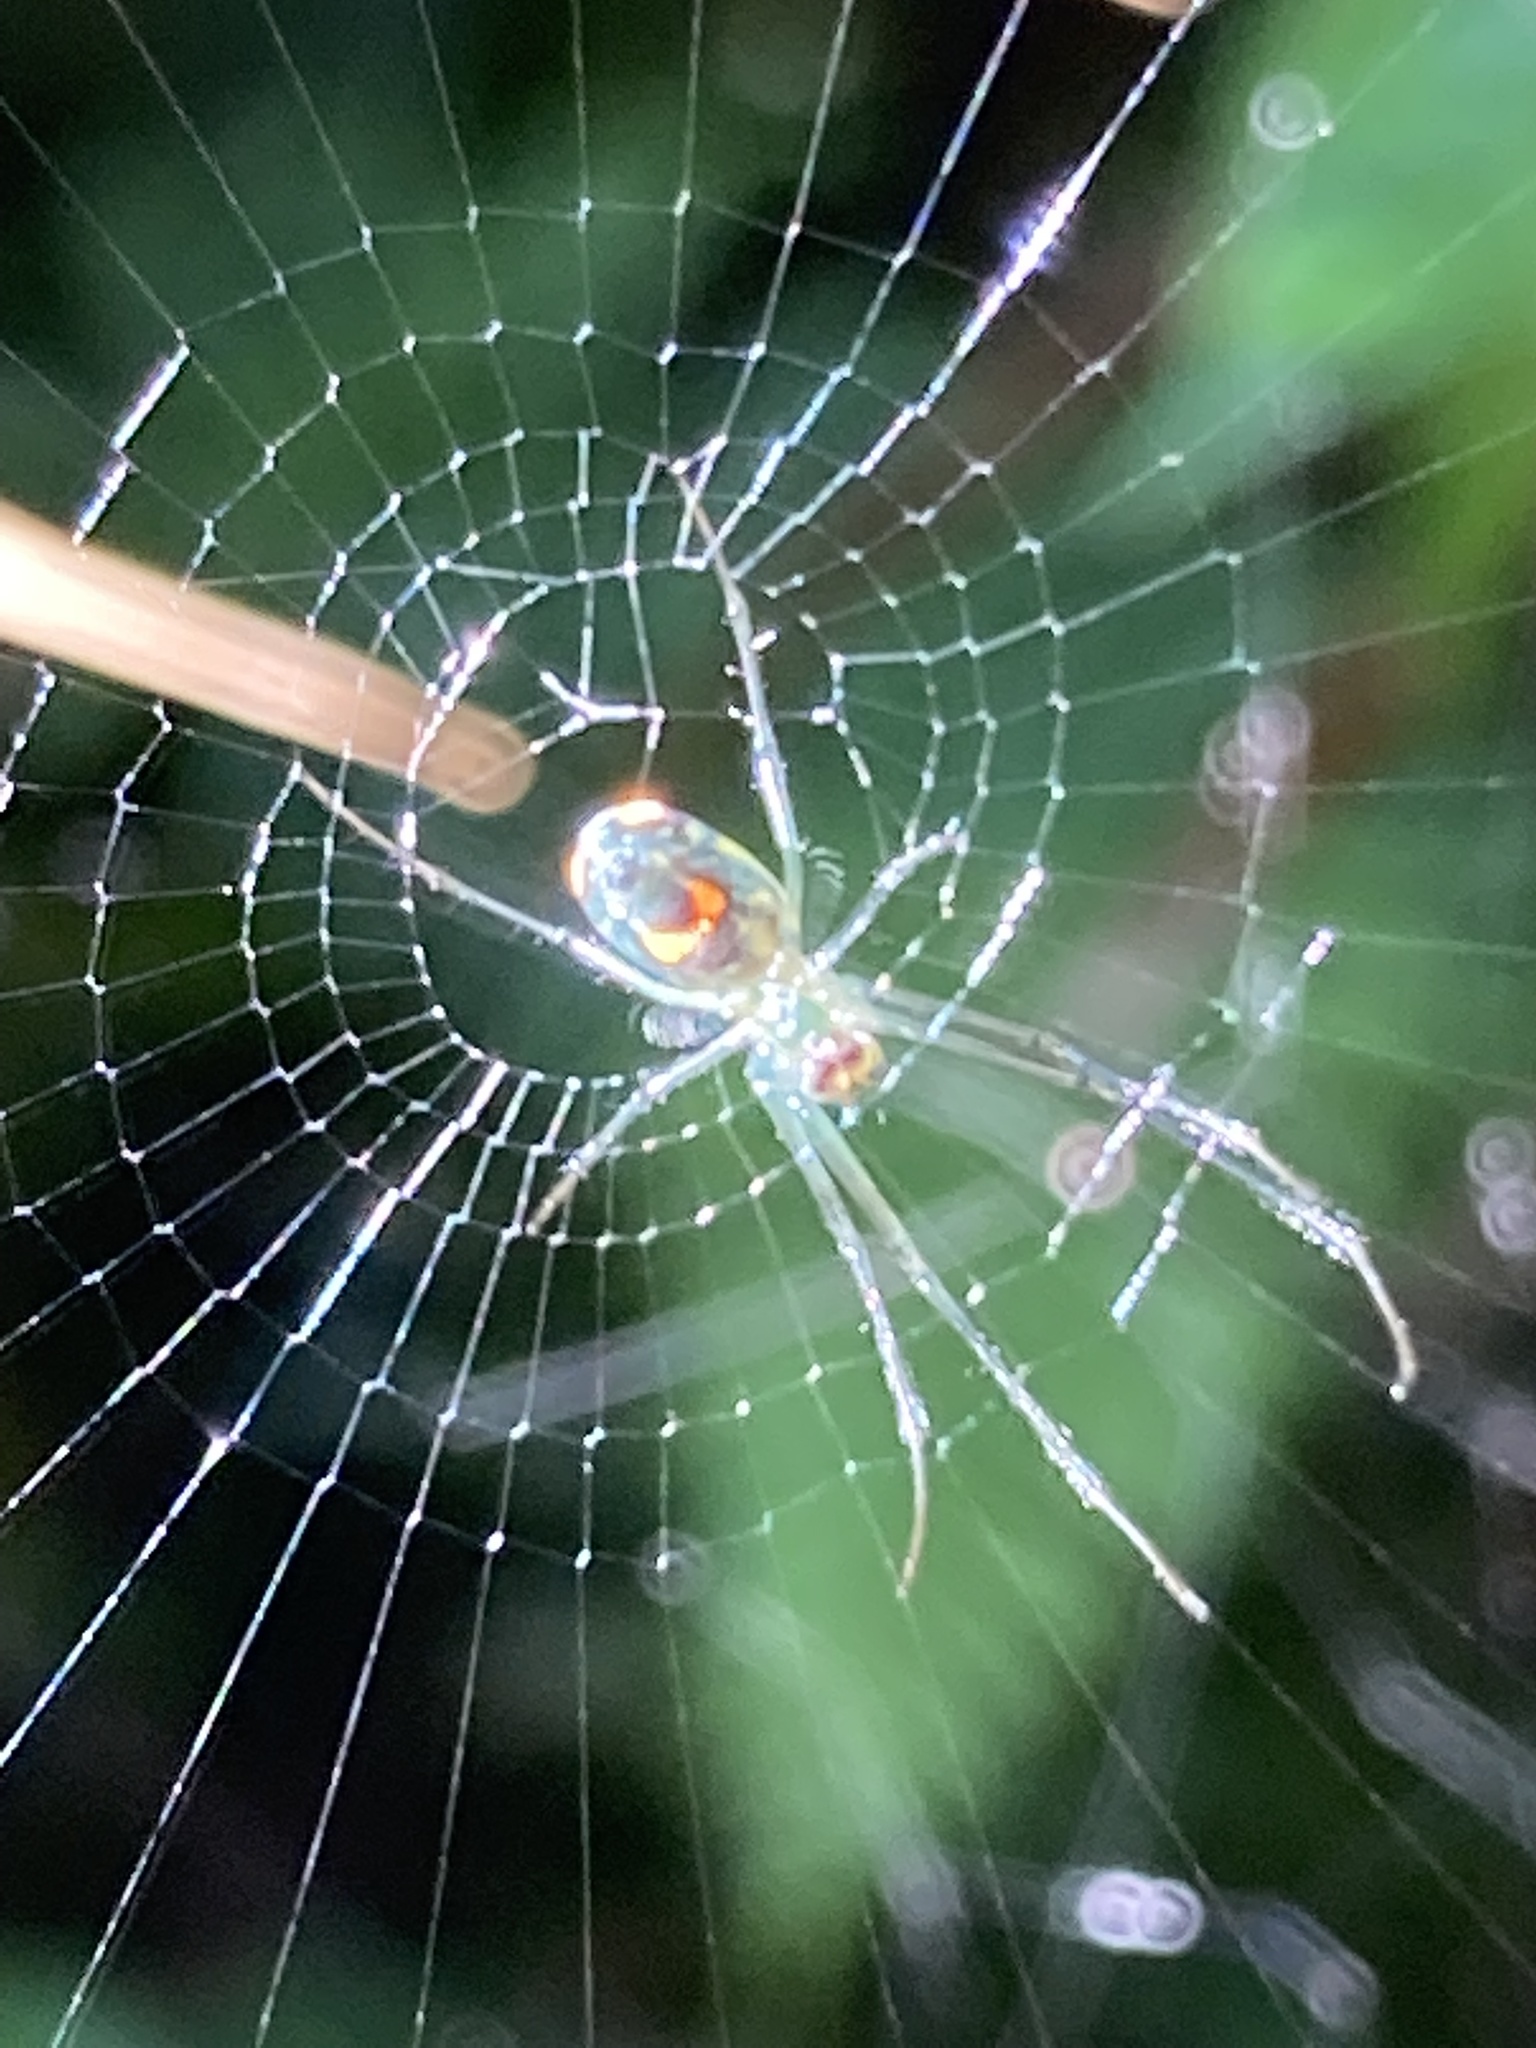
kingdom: Animalia
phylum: Arthropoda
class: Arachnida
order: Araneae
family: Tetragnathidae
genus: Leucauge
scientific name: Leucauge argyrobapta
